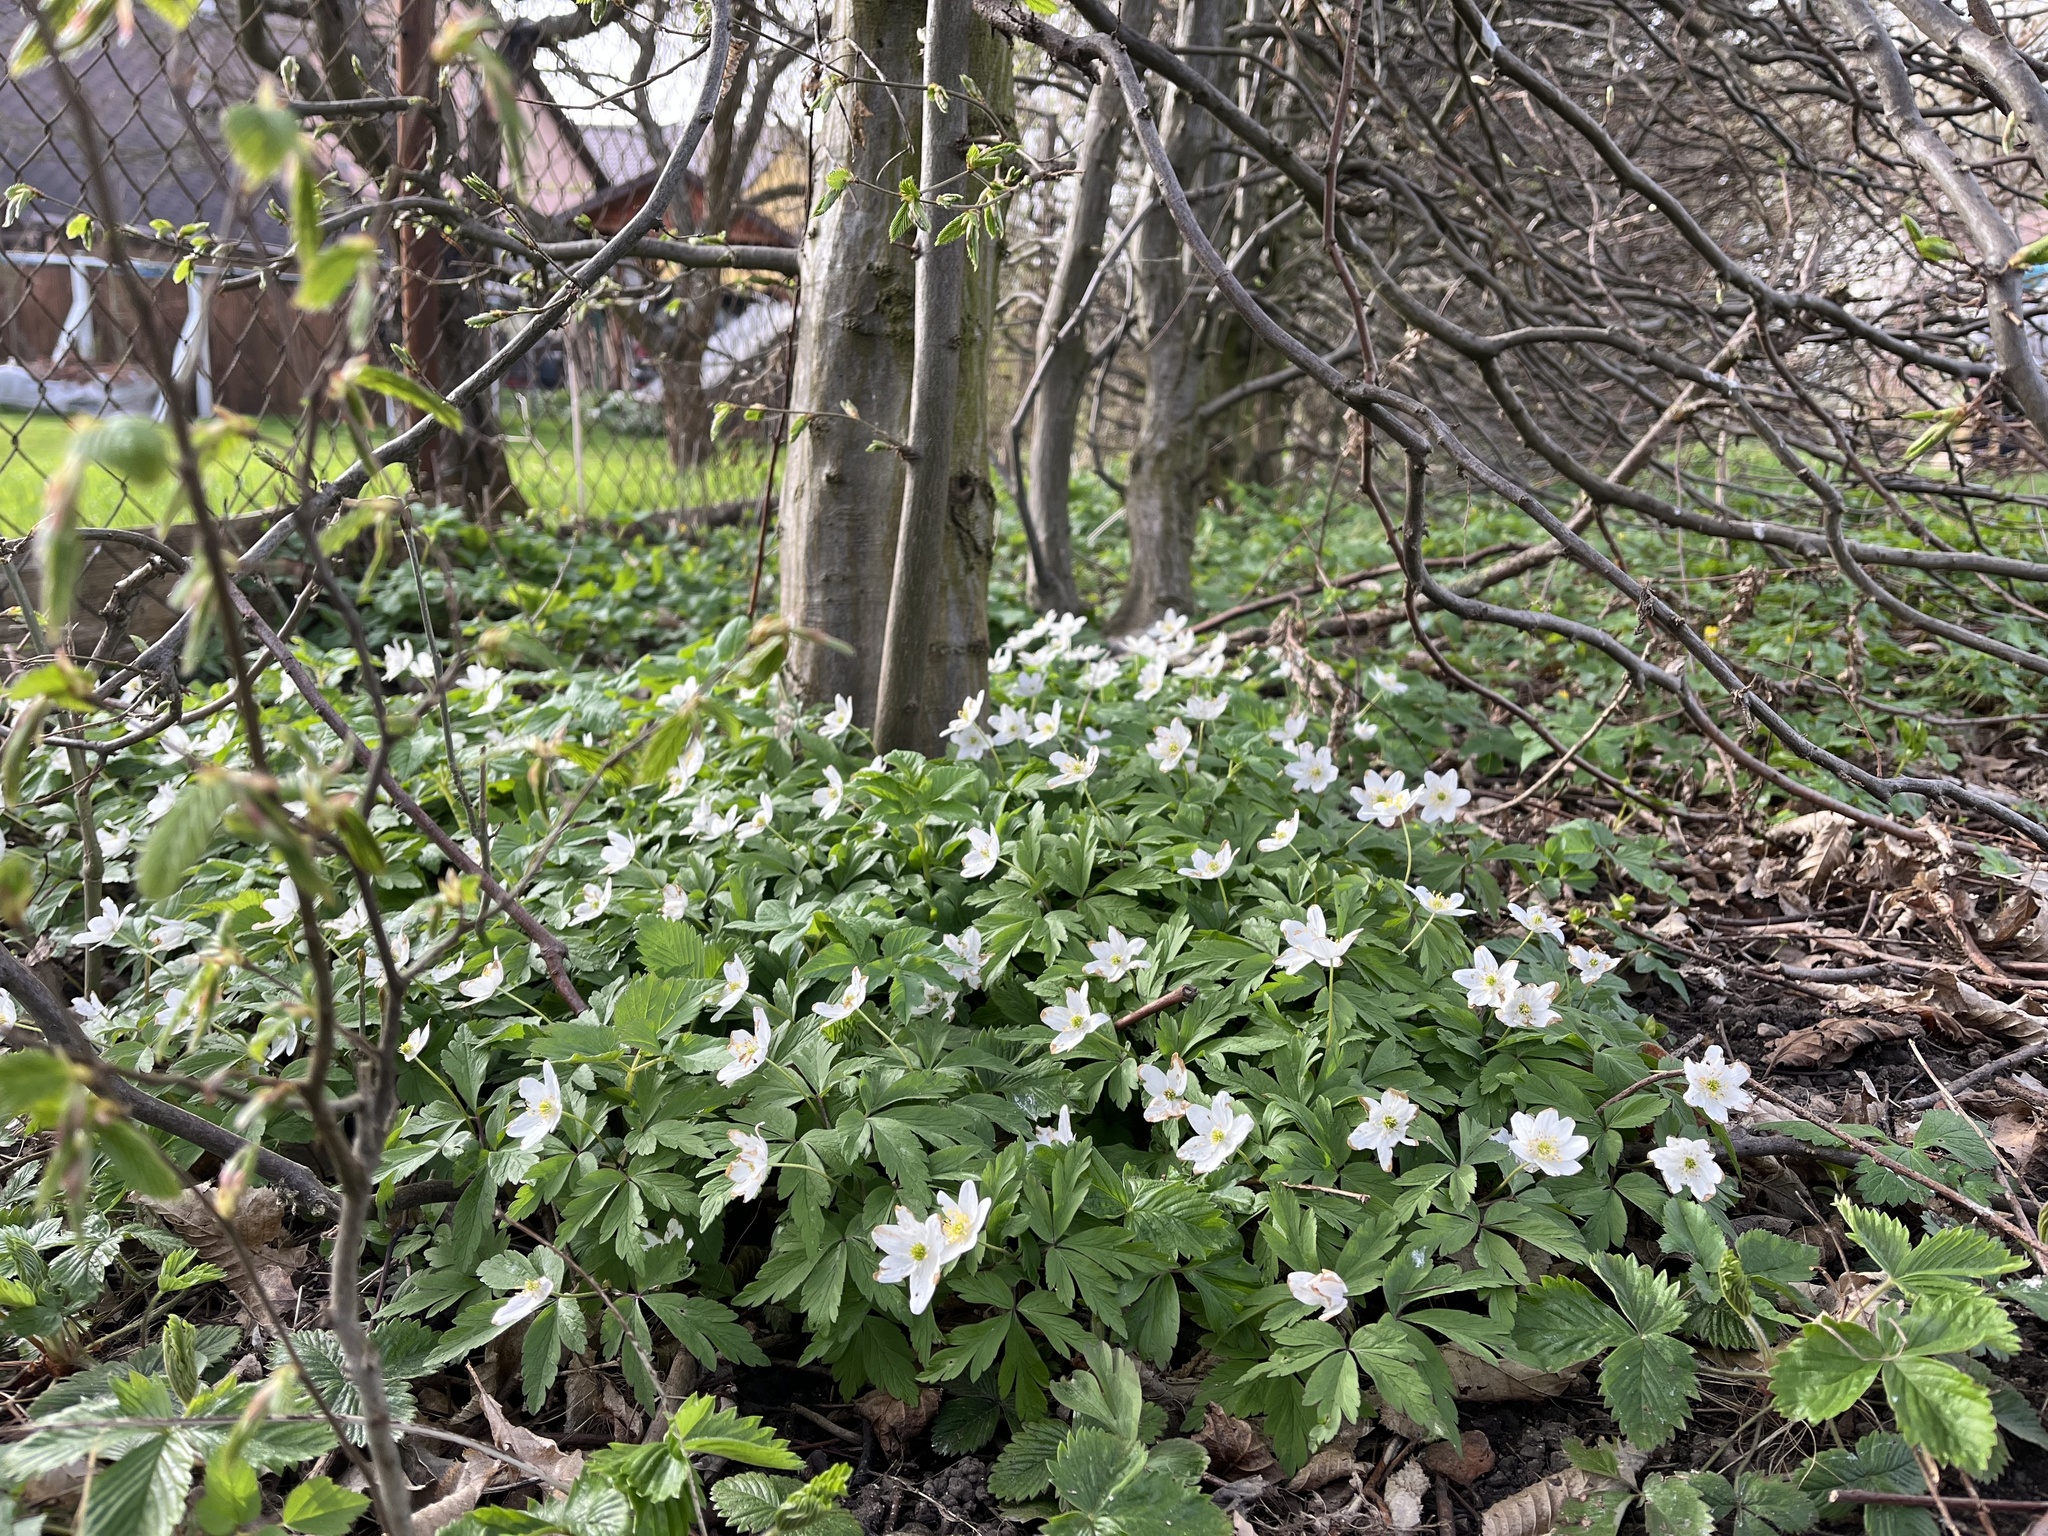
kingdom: Plantae
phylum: Tracheophyta
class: Magnoliopsida
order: Ranunculales
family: Ranunculaceae
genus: Anemone
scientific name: Anemone nemorosa
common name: Wood anemone
